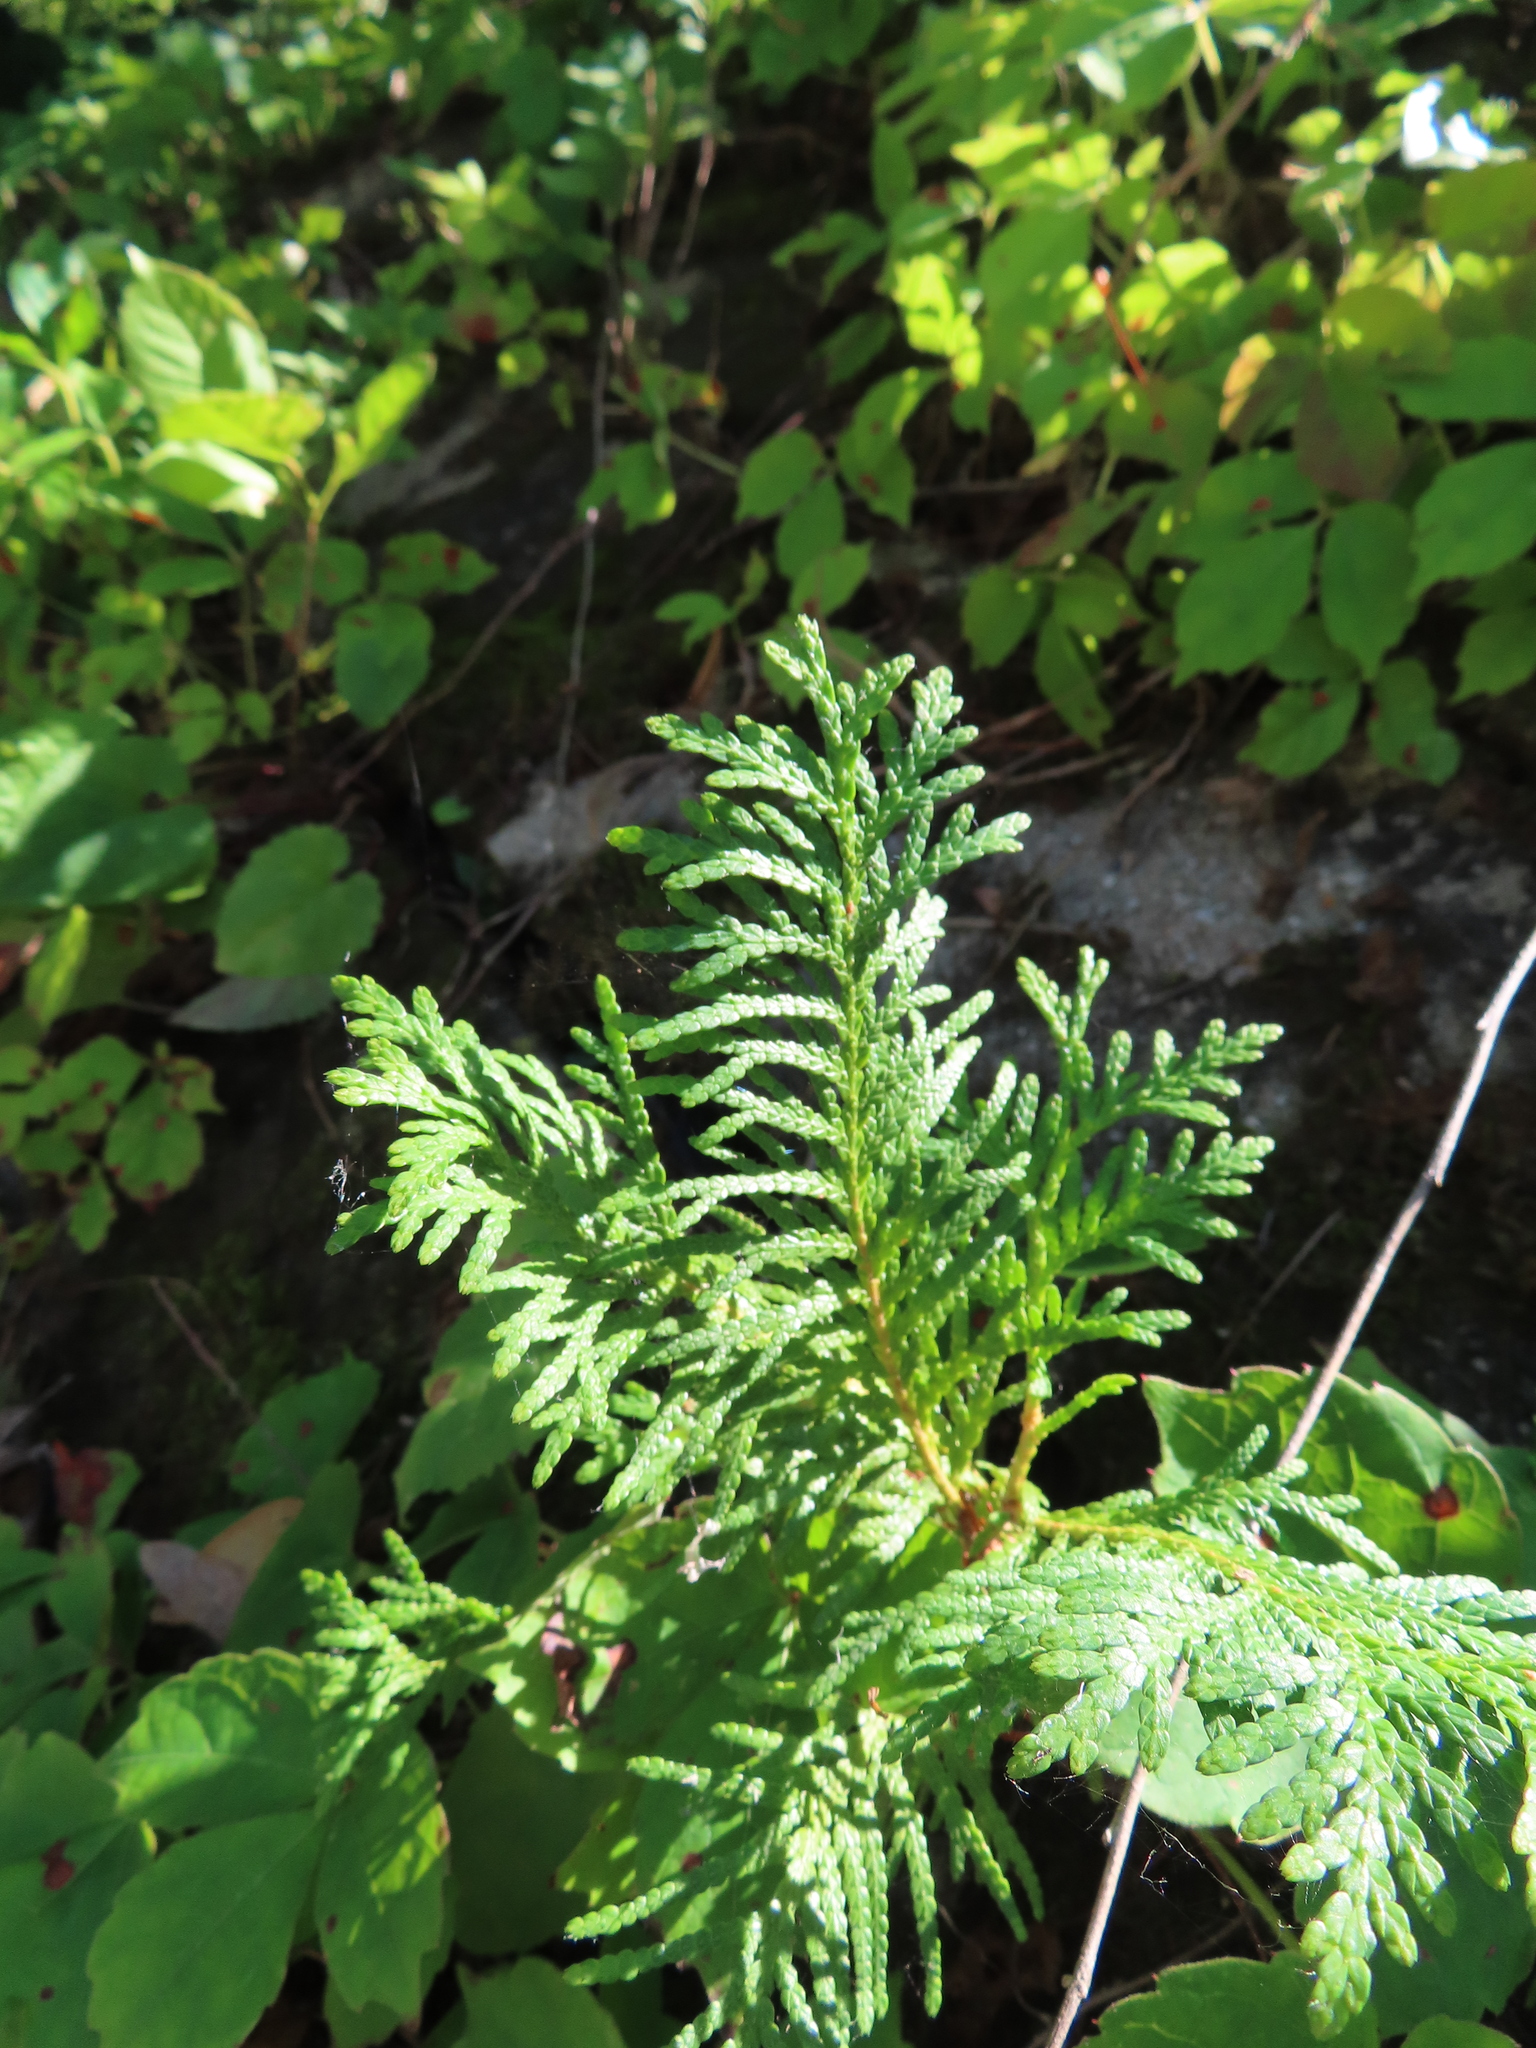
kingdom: Plantae
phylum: Tracheophyta
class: Pinopsida
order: Pinales
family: Cupressaceae
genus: Thuja
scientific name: Thuja occidentalis
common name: Northern white-cedar
